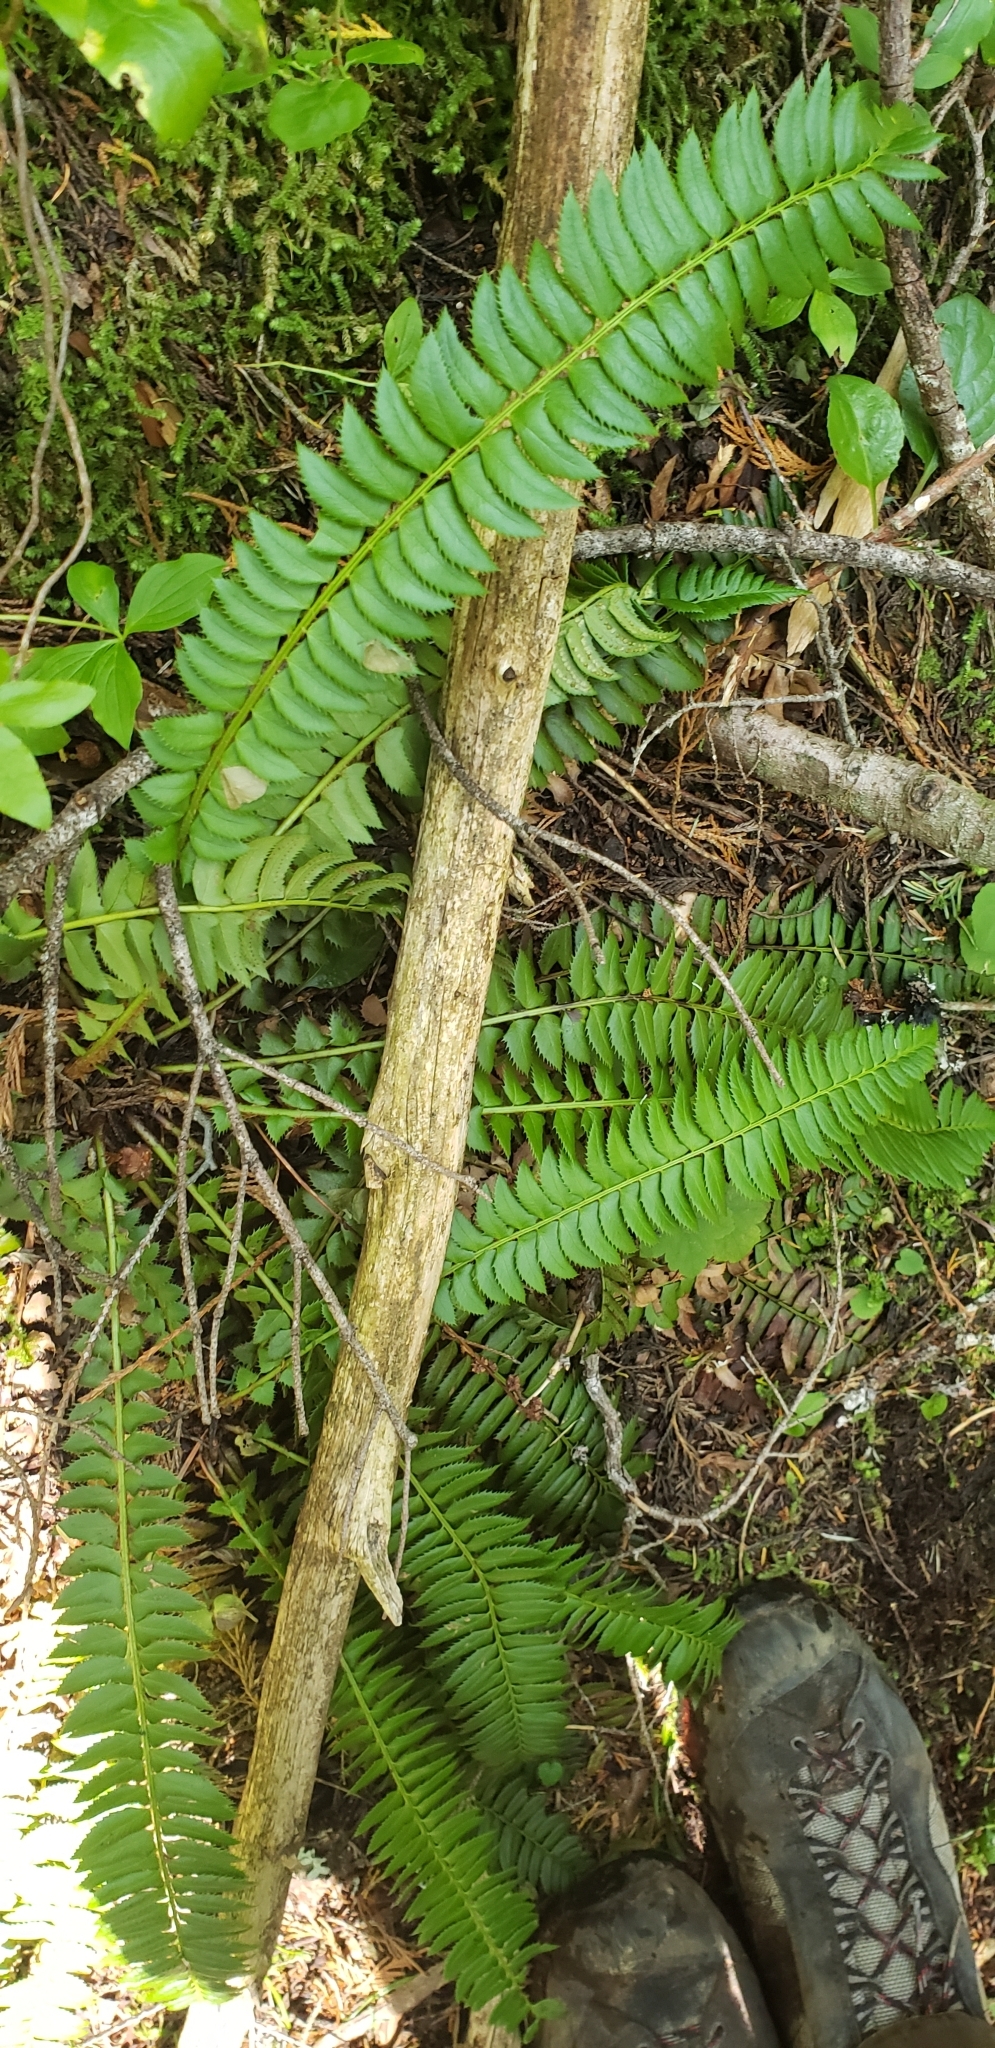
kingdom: Plantae
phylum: Tracheophyta
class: Polypodiopsida
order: Polypodiales
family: Dryopteridaceae
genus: Polystichum
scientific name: Polystichum lonchitis
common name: Holly fern
